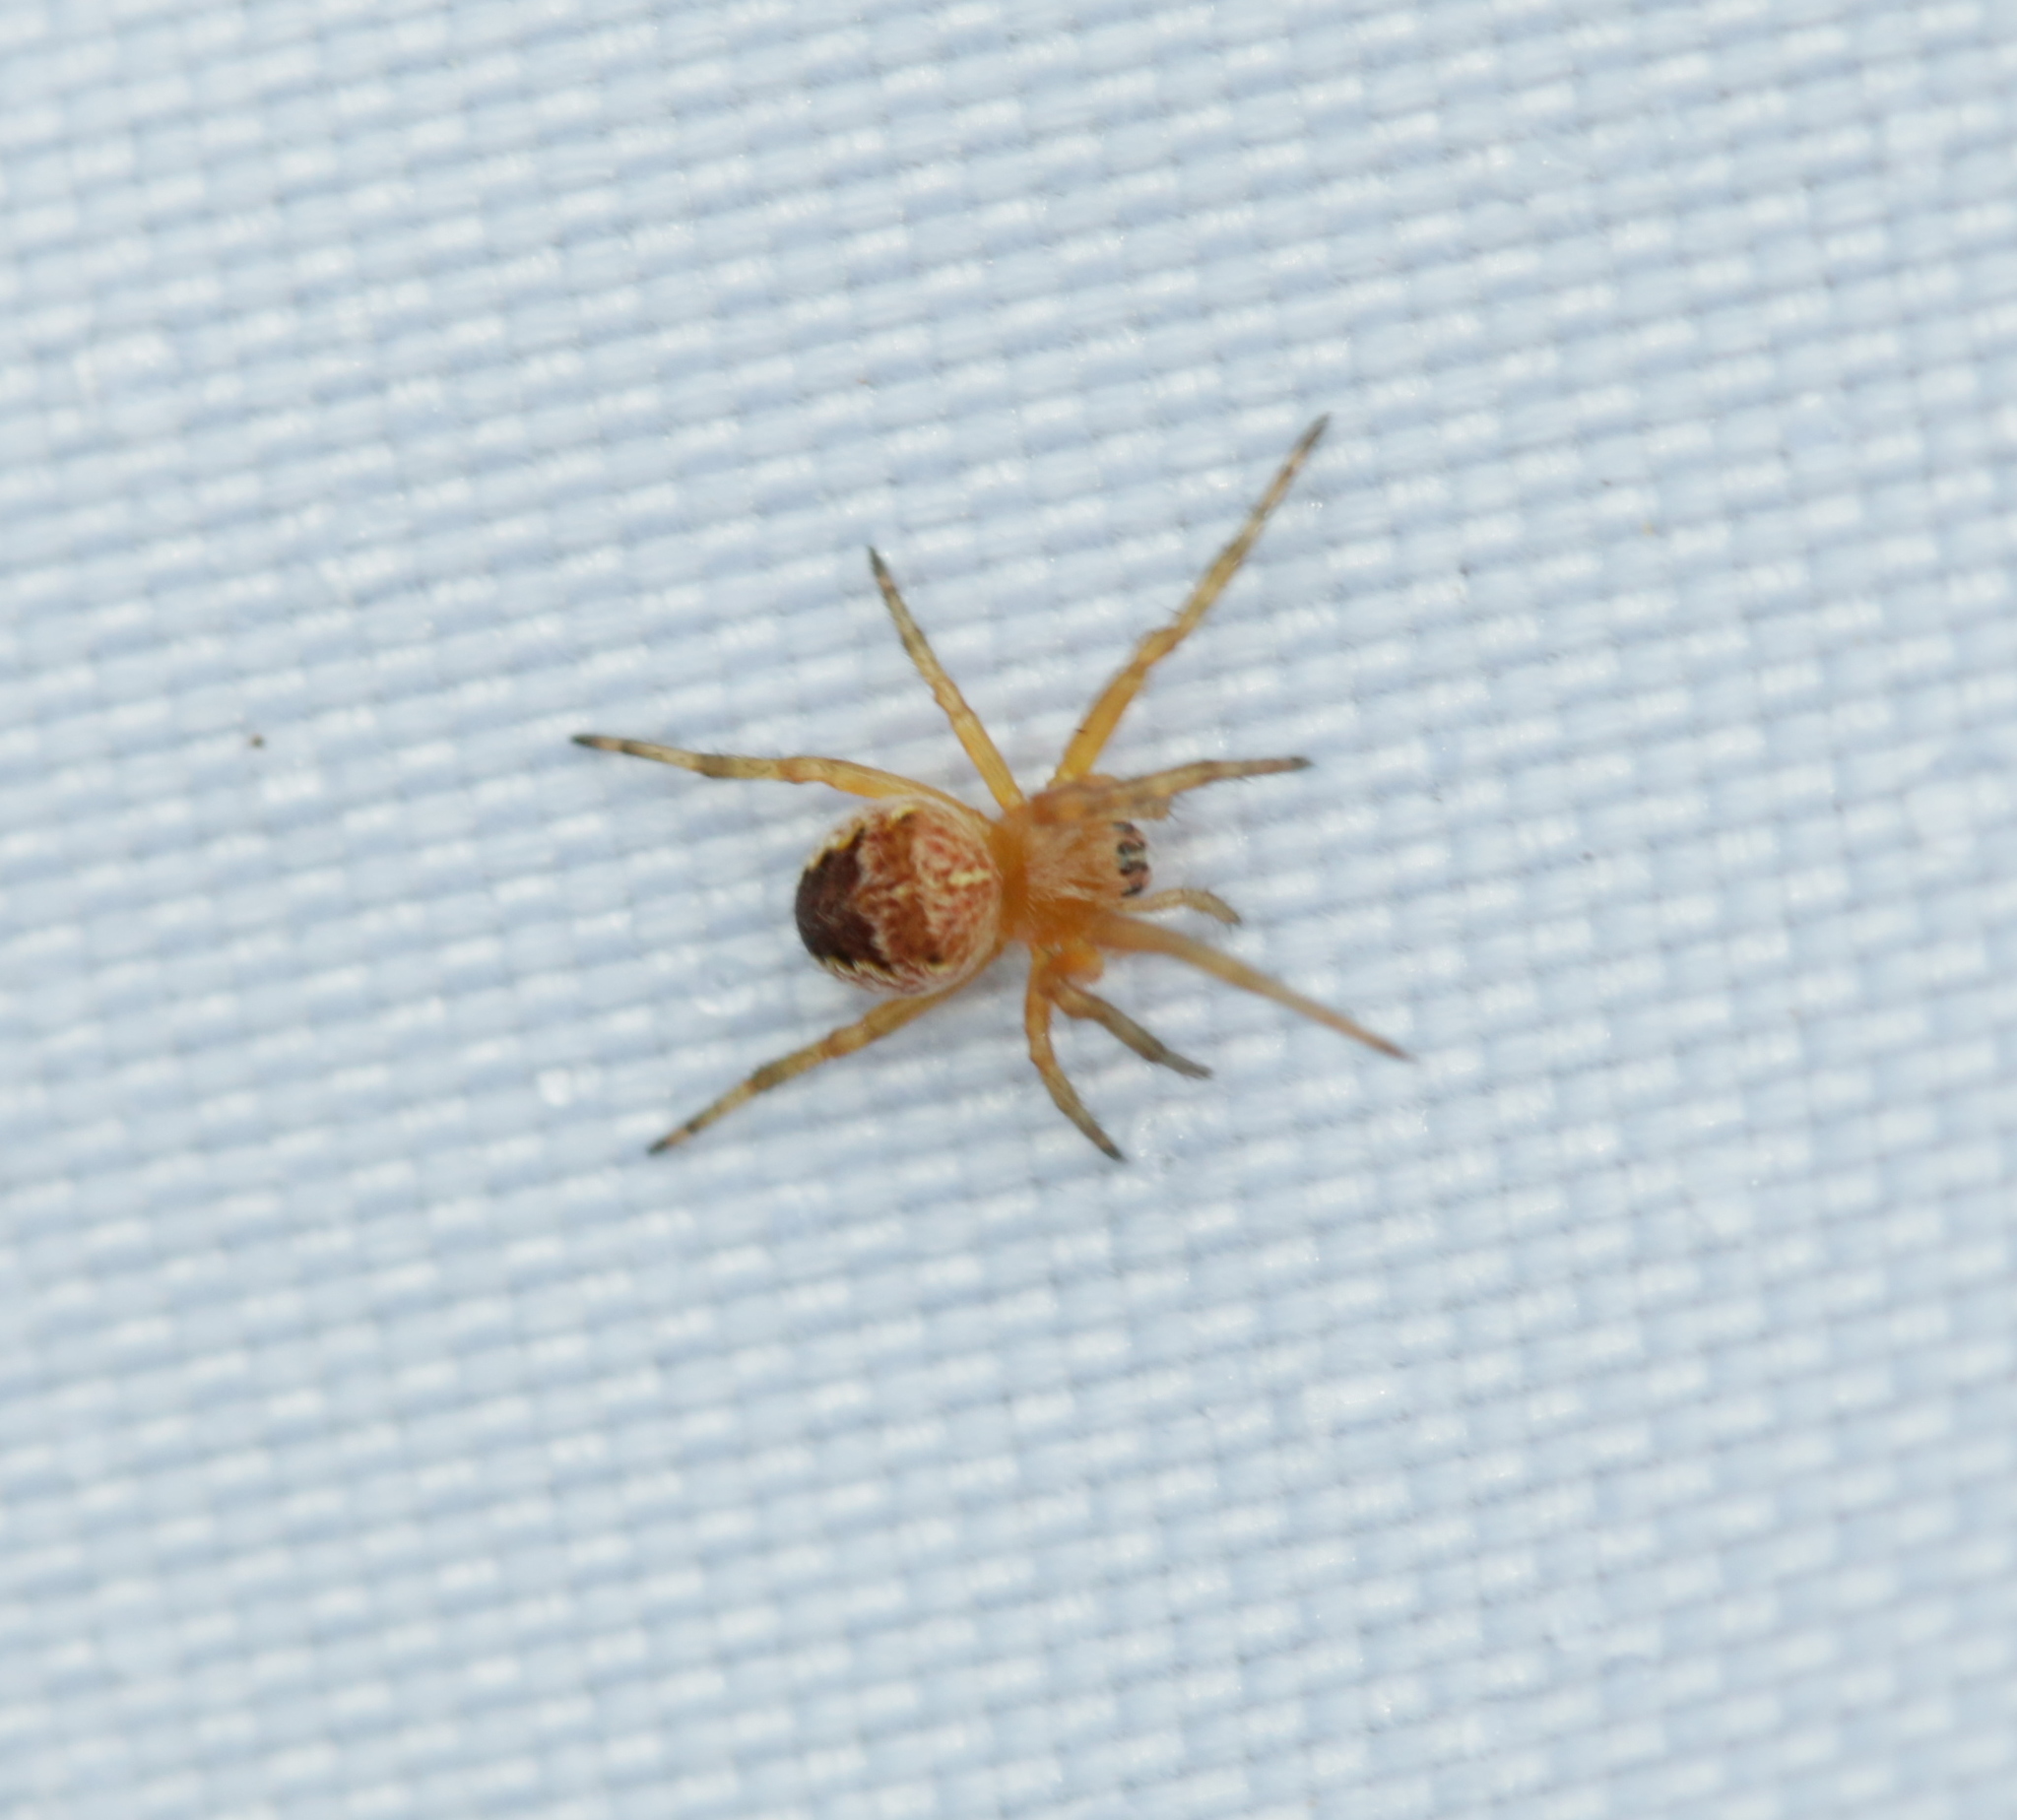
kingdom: Animalia
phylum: Arthropoda
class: Arachnida
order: Araneae
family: Araneidae
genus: Araneus
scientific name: Araneus diadematus
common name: Cross orbweaver
